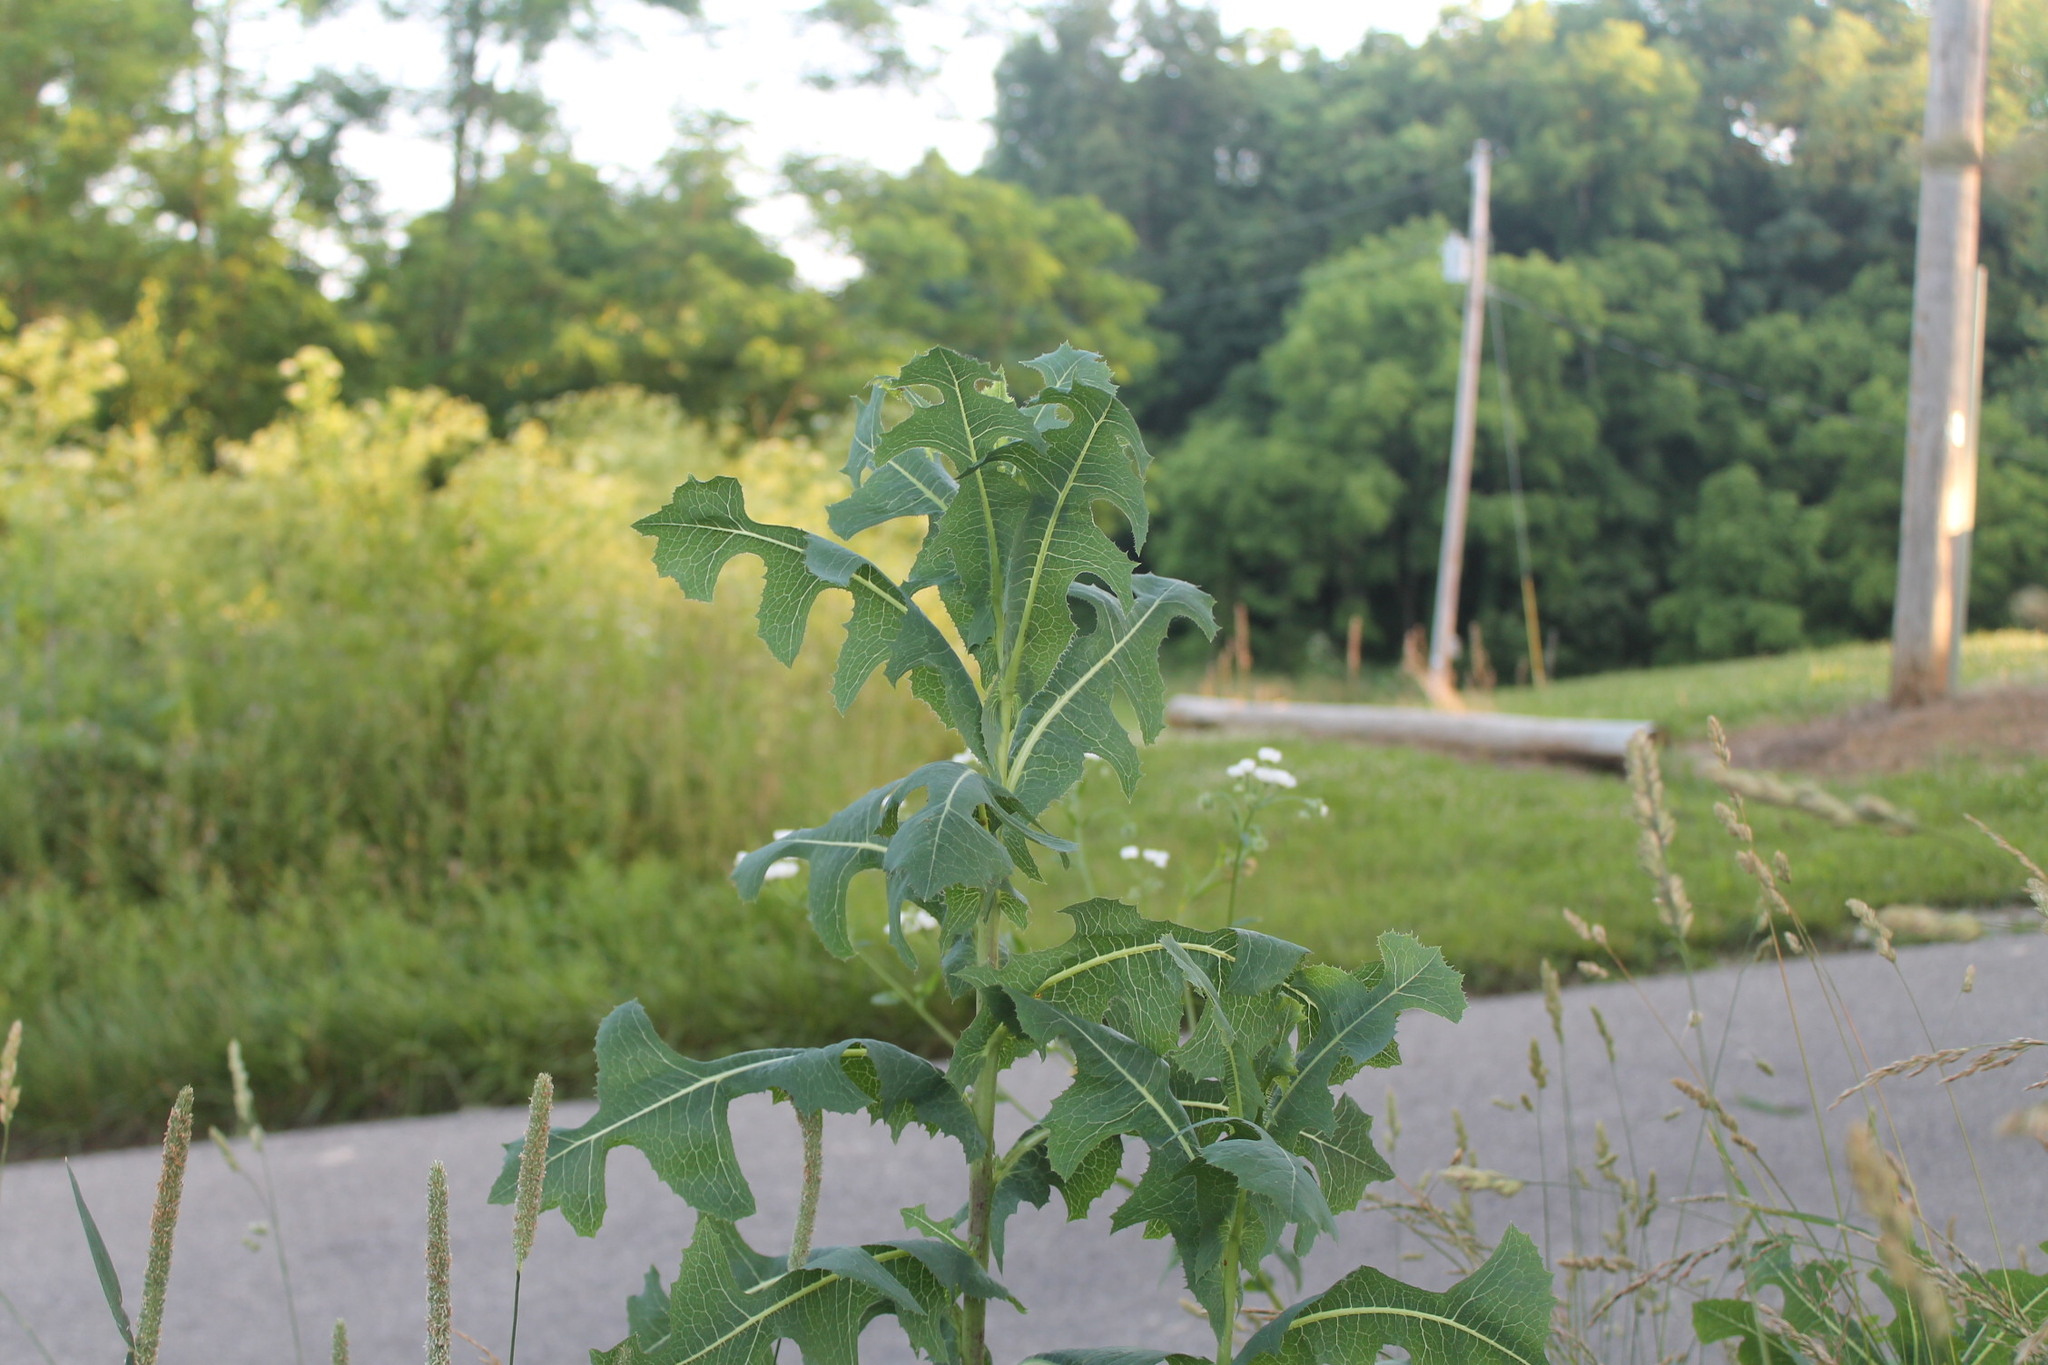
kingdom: Plantae
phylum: Tracheophyta
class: Magnoliopsida
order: Asterales
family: Asteraceae
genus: Lactuca
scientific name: Lactuca serriola
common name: Prickly lettuce
